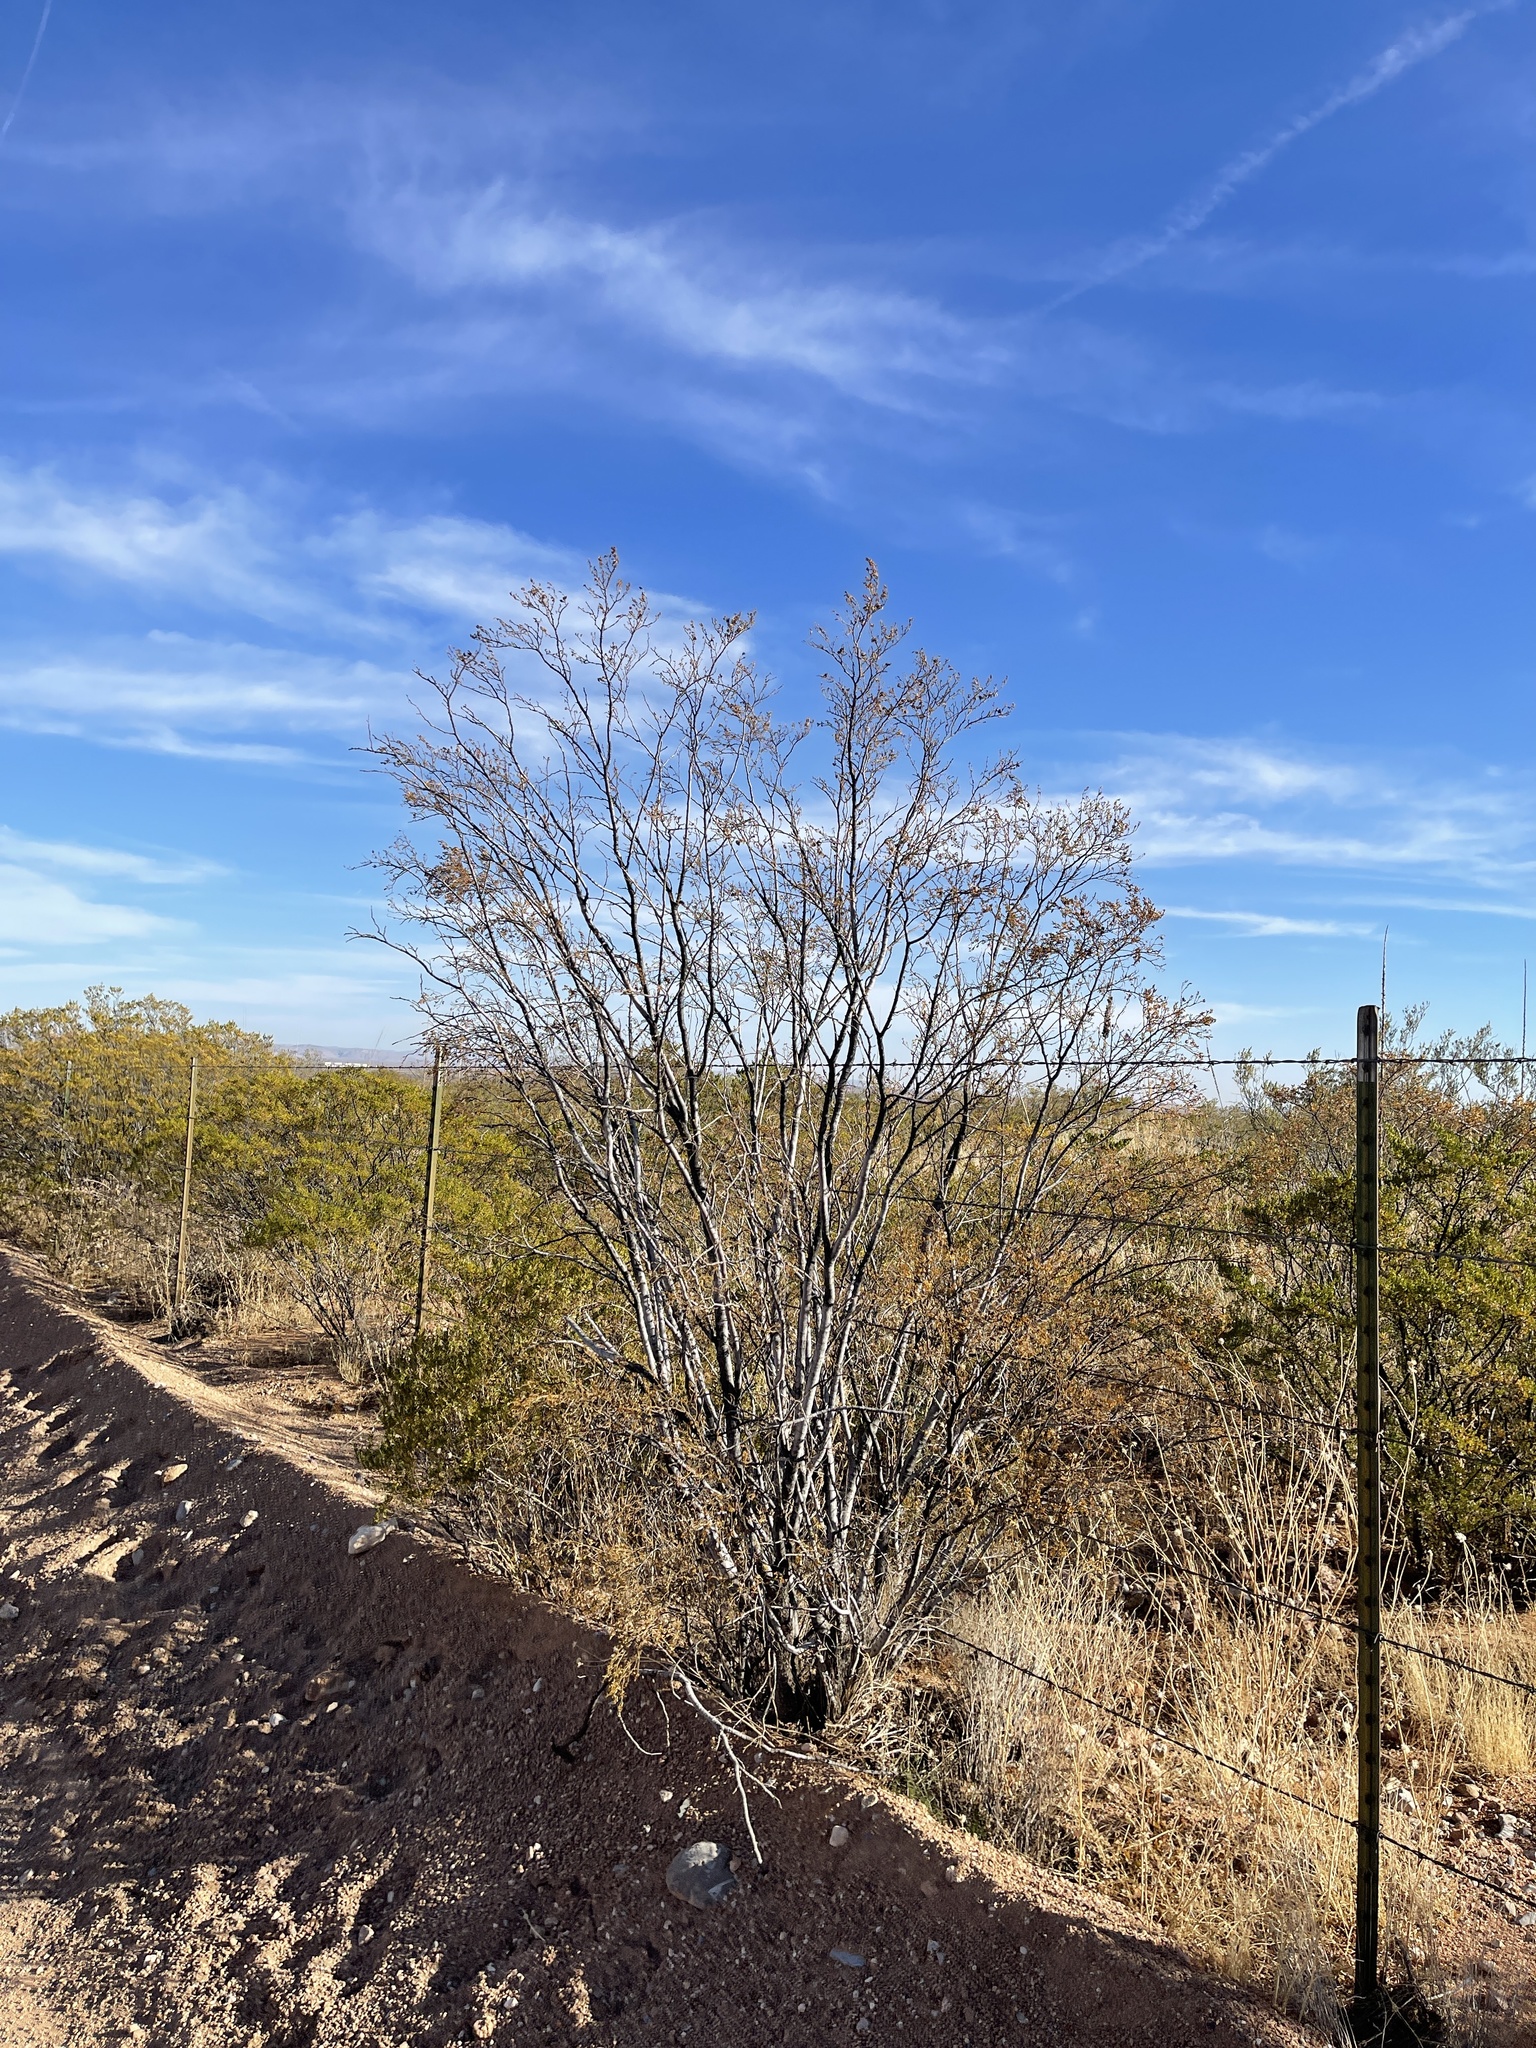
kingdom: Plantae
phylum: Tracheophyta
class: Magnoliopsida
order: Zygophyllales
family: Zygophyllaceae
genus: Larrea
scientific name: Larrea tridentata
